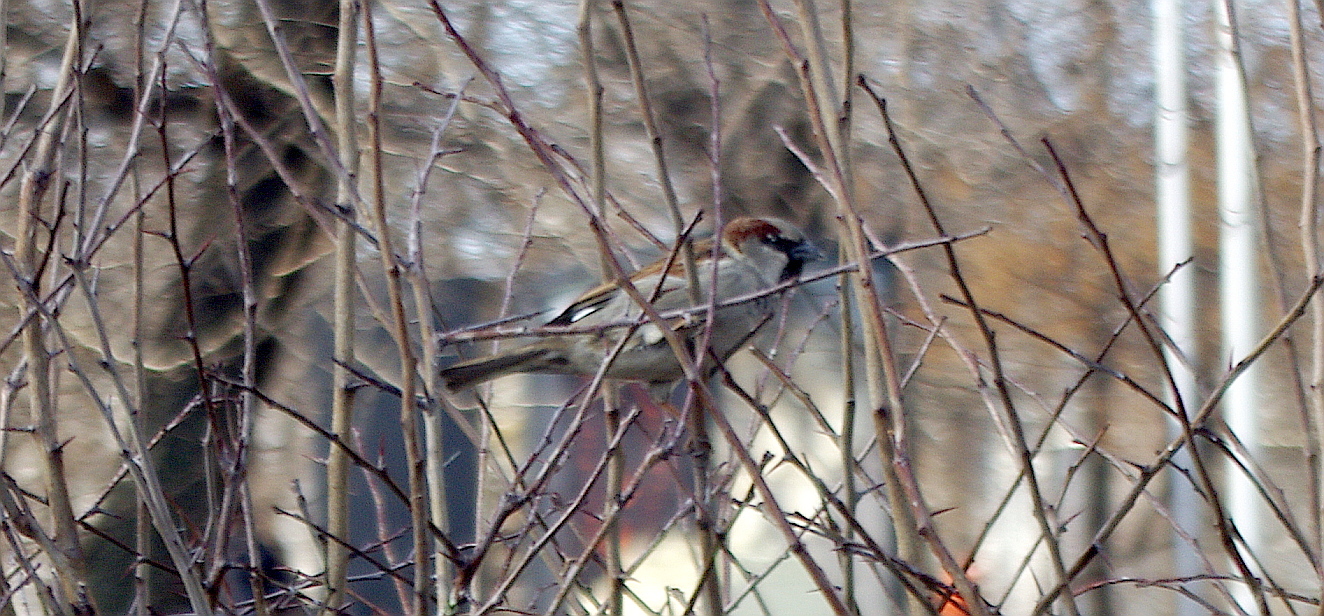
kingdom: Animalia
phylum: Chordata
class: Aves
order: Passeriformes
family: Passeridae
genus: Passer
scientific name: Passer domesticus
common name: House sparrow
